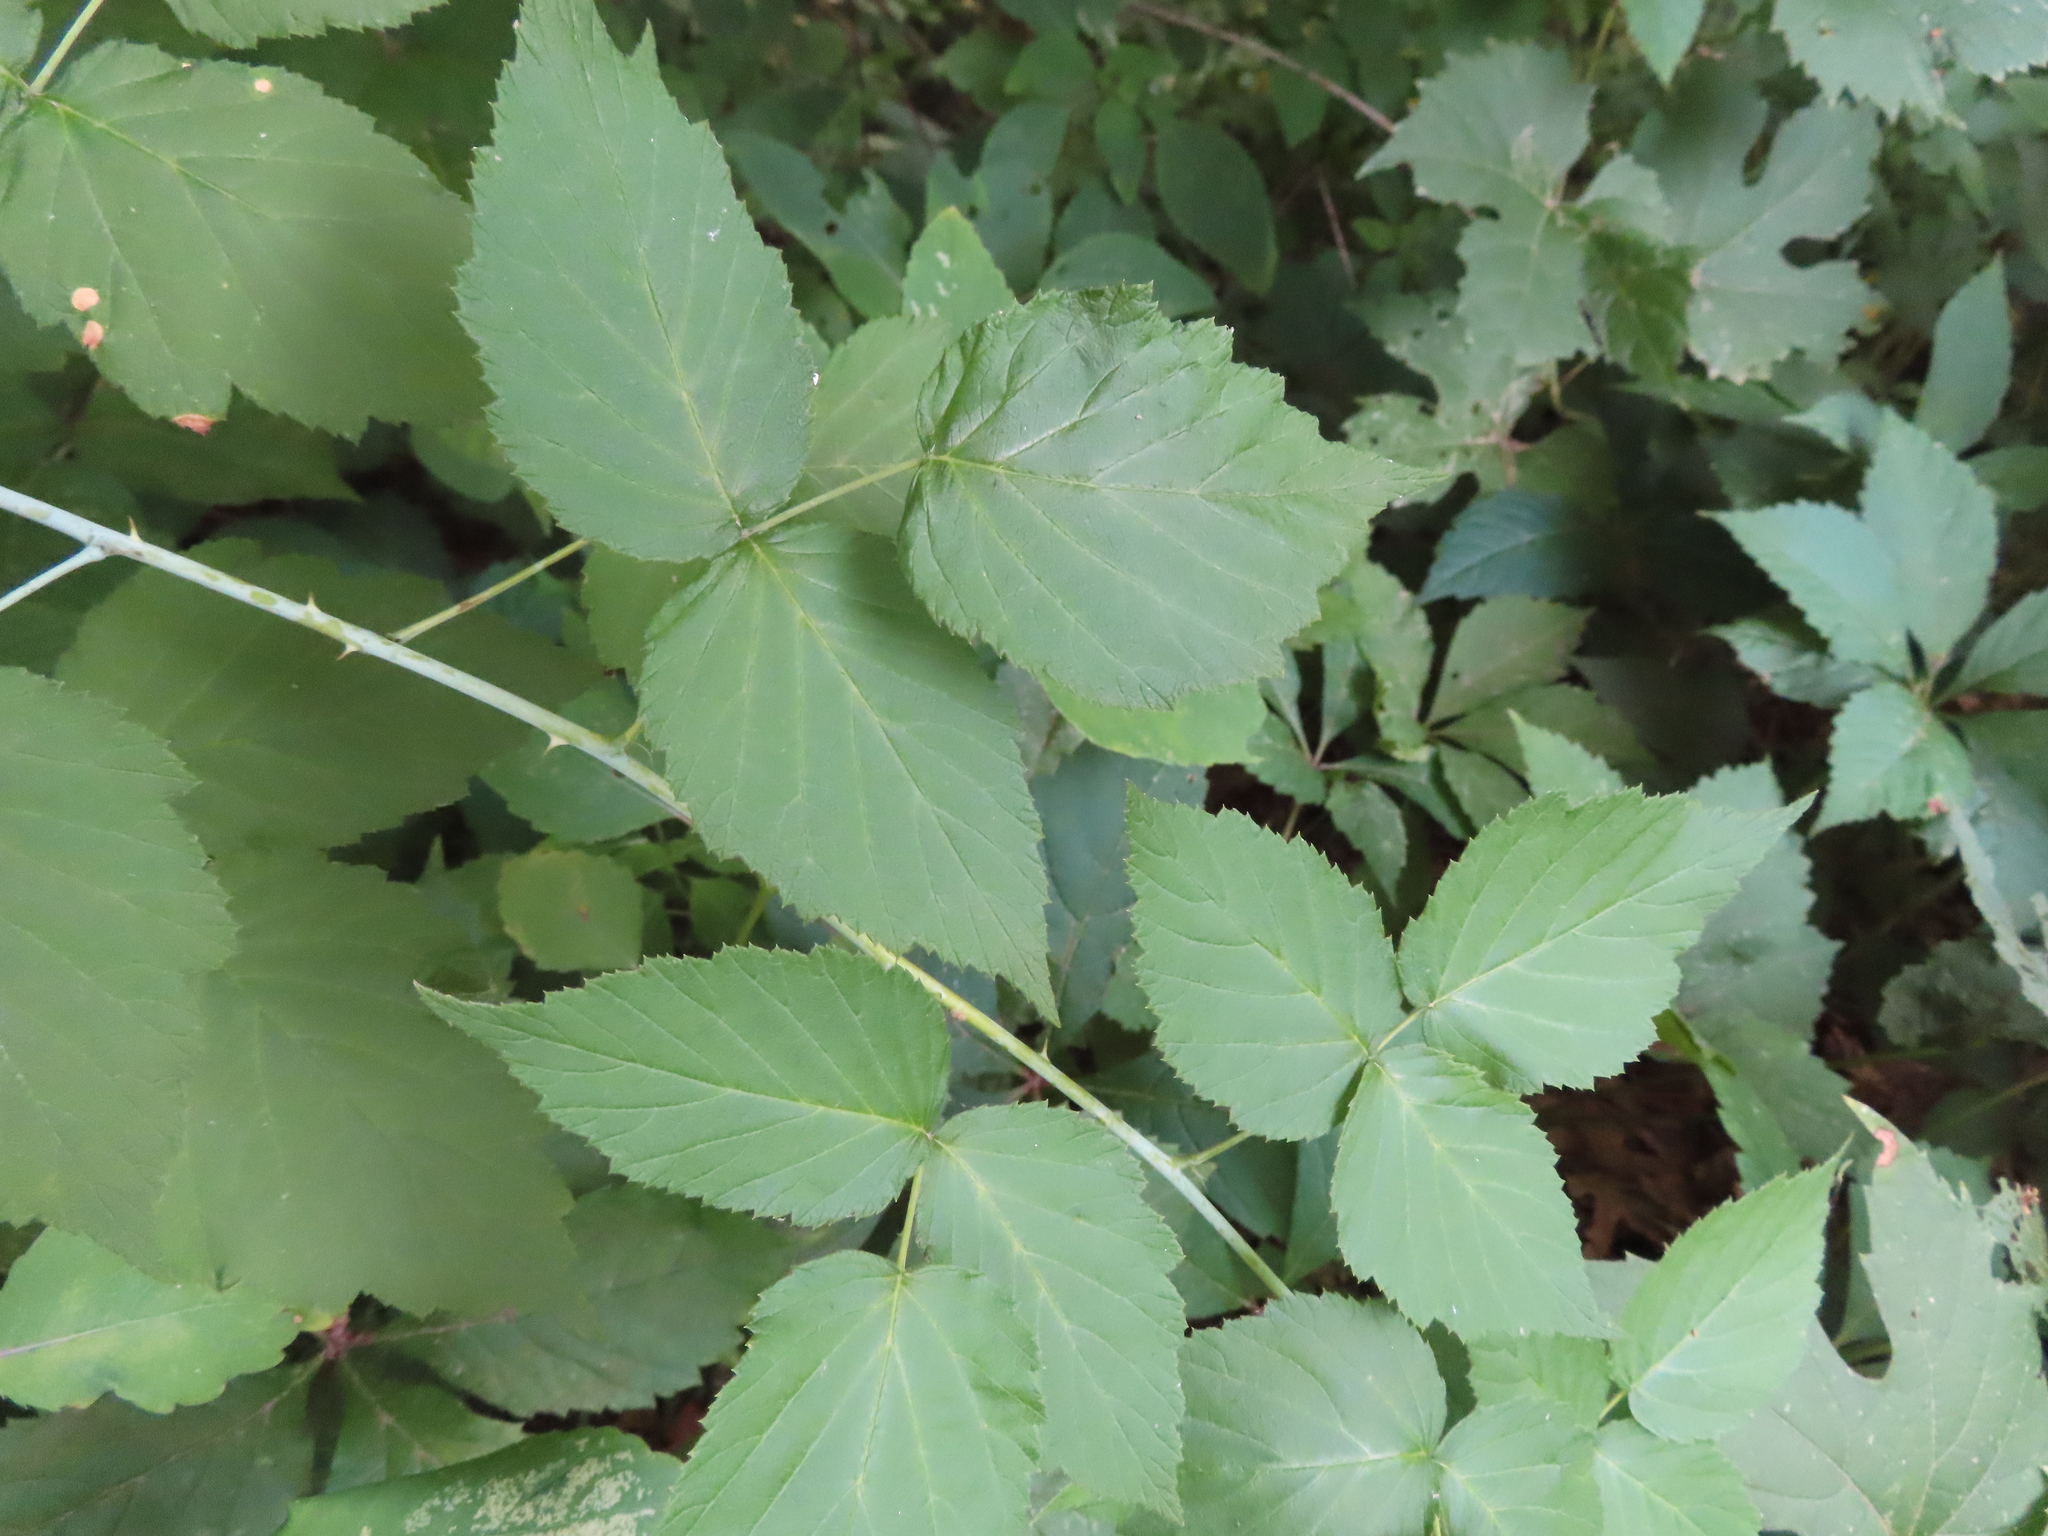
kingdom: Plantae
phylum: Tracheophyta
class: Magnoliopsida
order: Rosales
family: Rosaceae
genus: Rubus
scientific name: Rubus occidentalis
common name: Black raspberry
